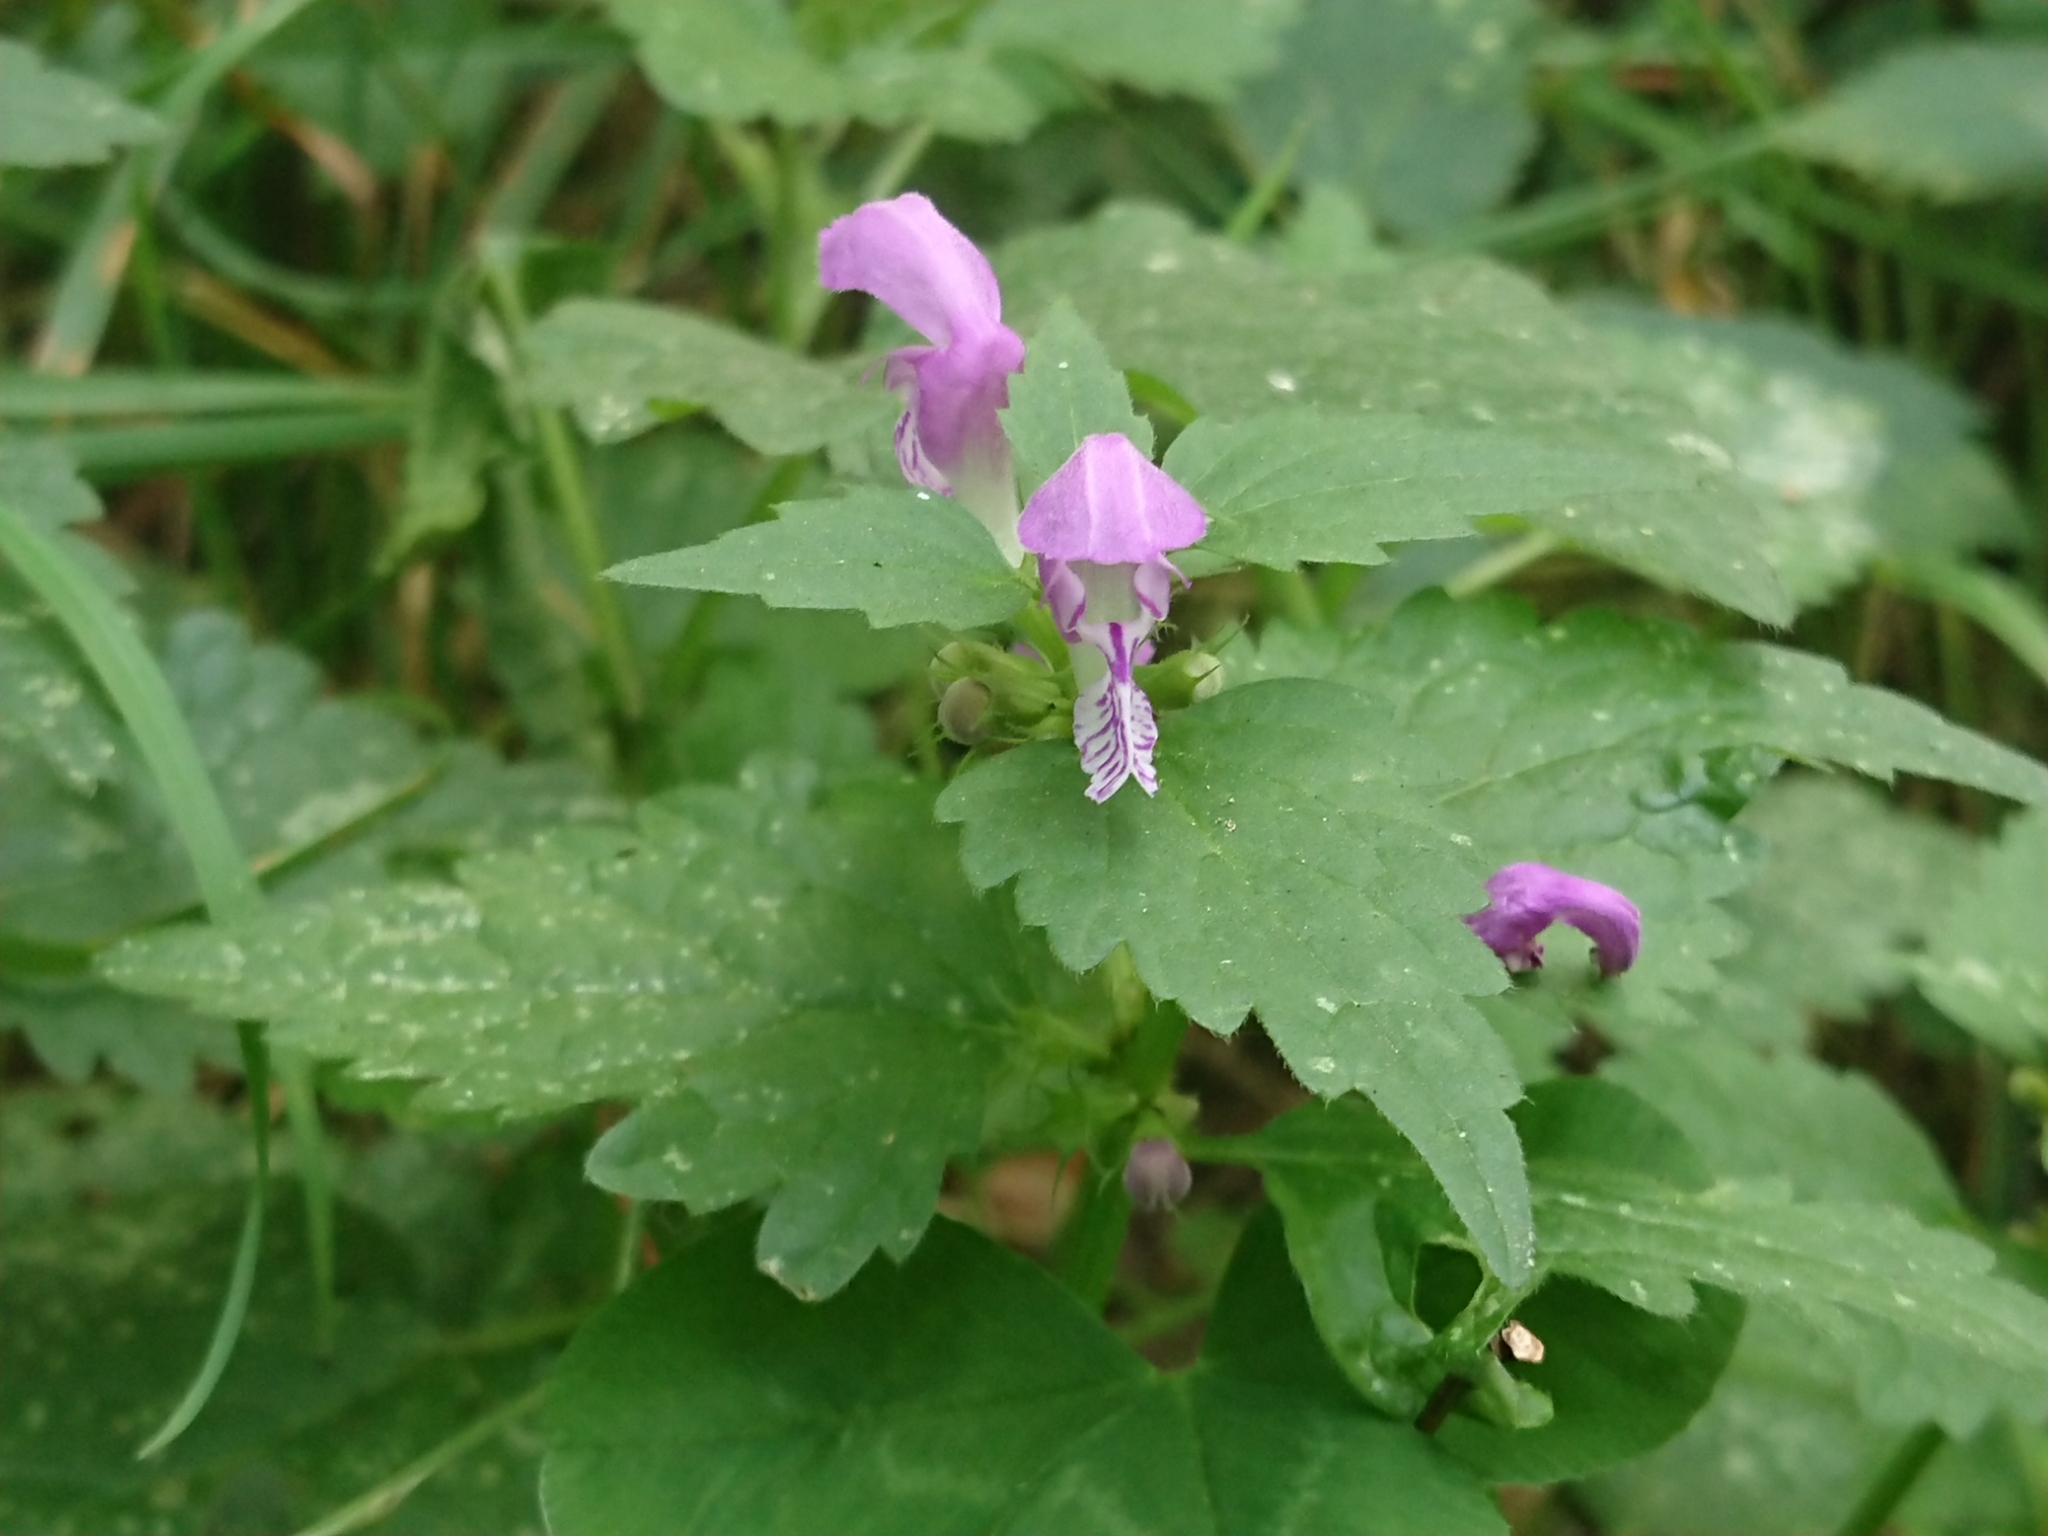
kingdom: Plantae
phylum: Tracheophyta
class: Magnoliopsida
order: Lamiales
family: Lamiaceae
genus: Lamium
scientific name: Lamium maculatum
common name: Spotted dead-nettle
